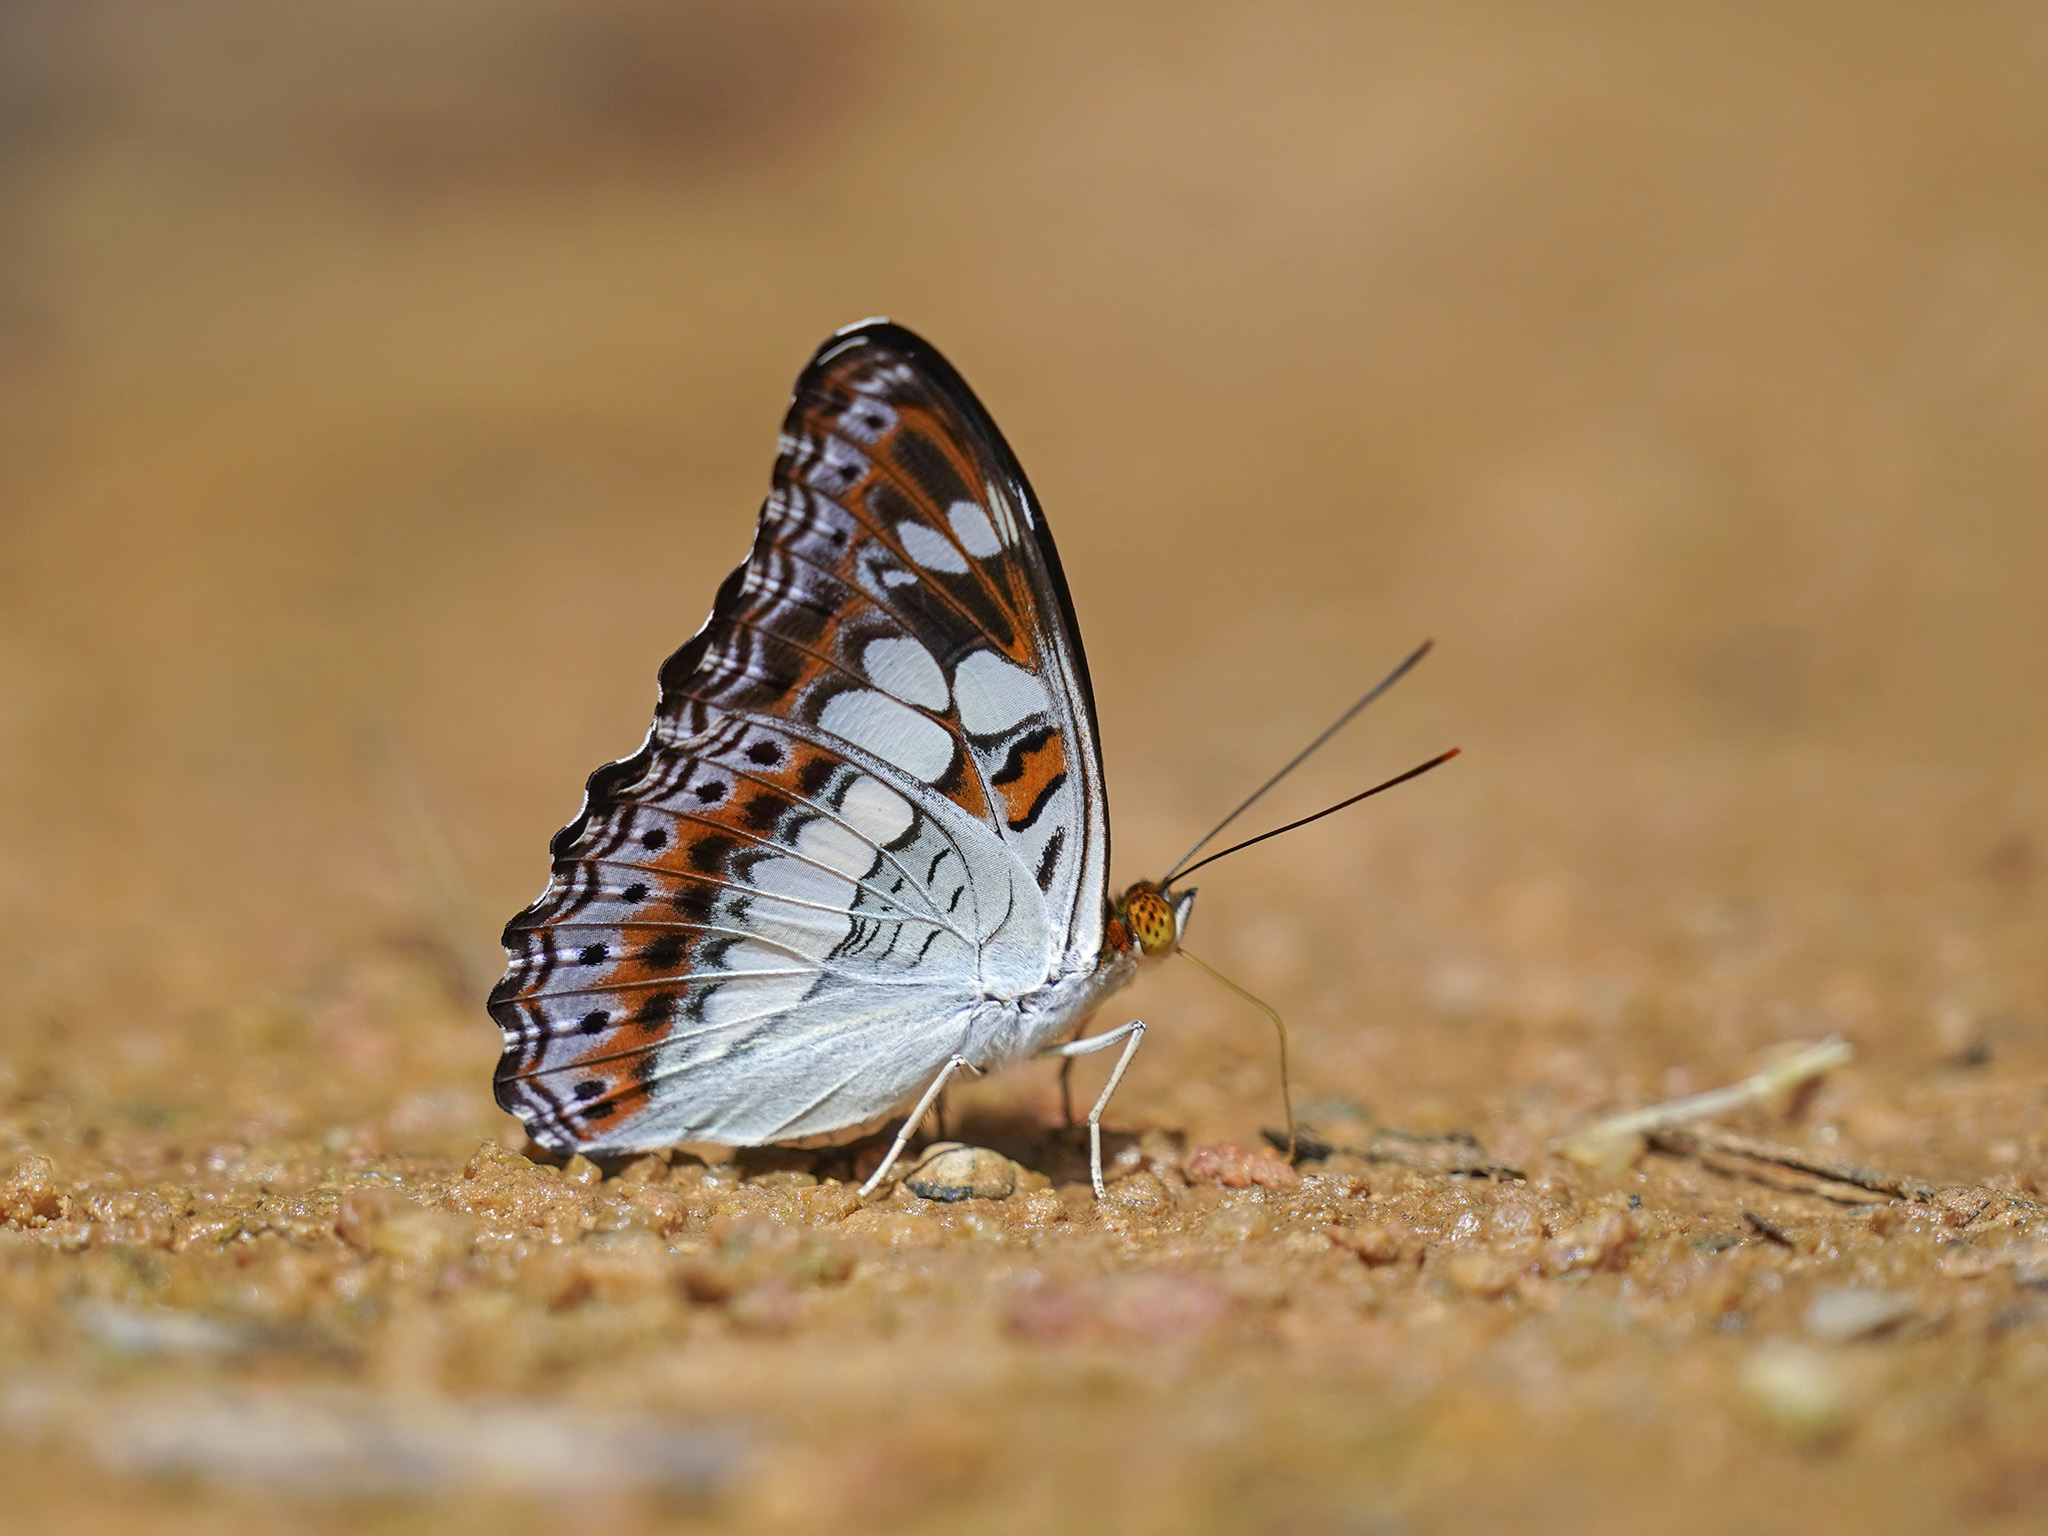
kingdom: Animalia
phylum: Arthropoda
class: Insecta
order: Lepidoptera
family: Nymphalidae
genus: Limenitis
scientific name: Limenitis Moduza procris
